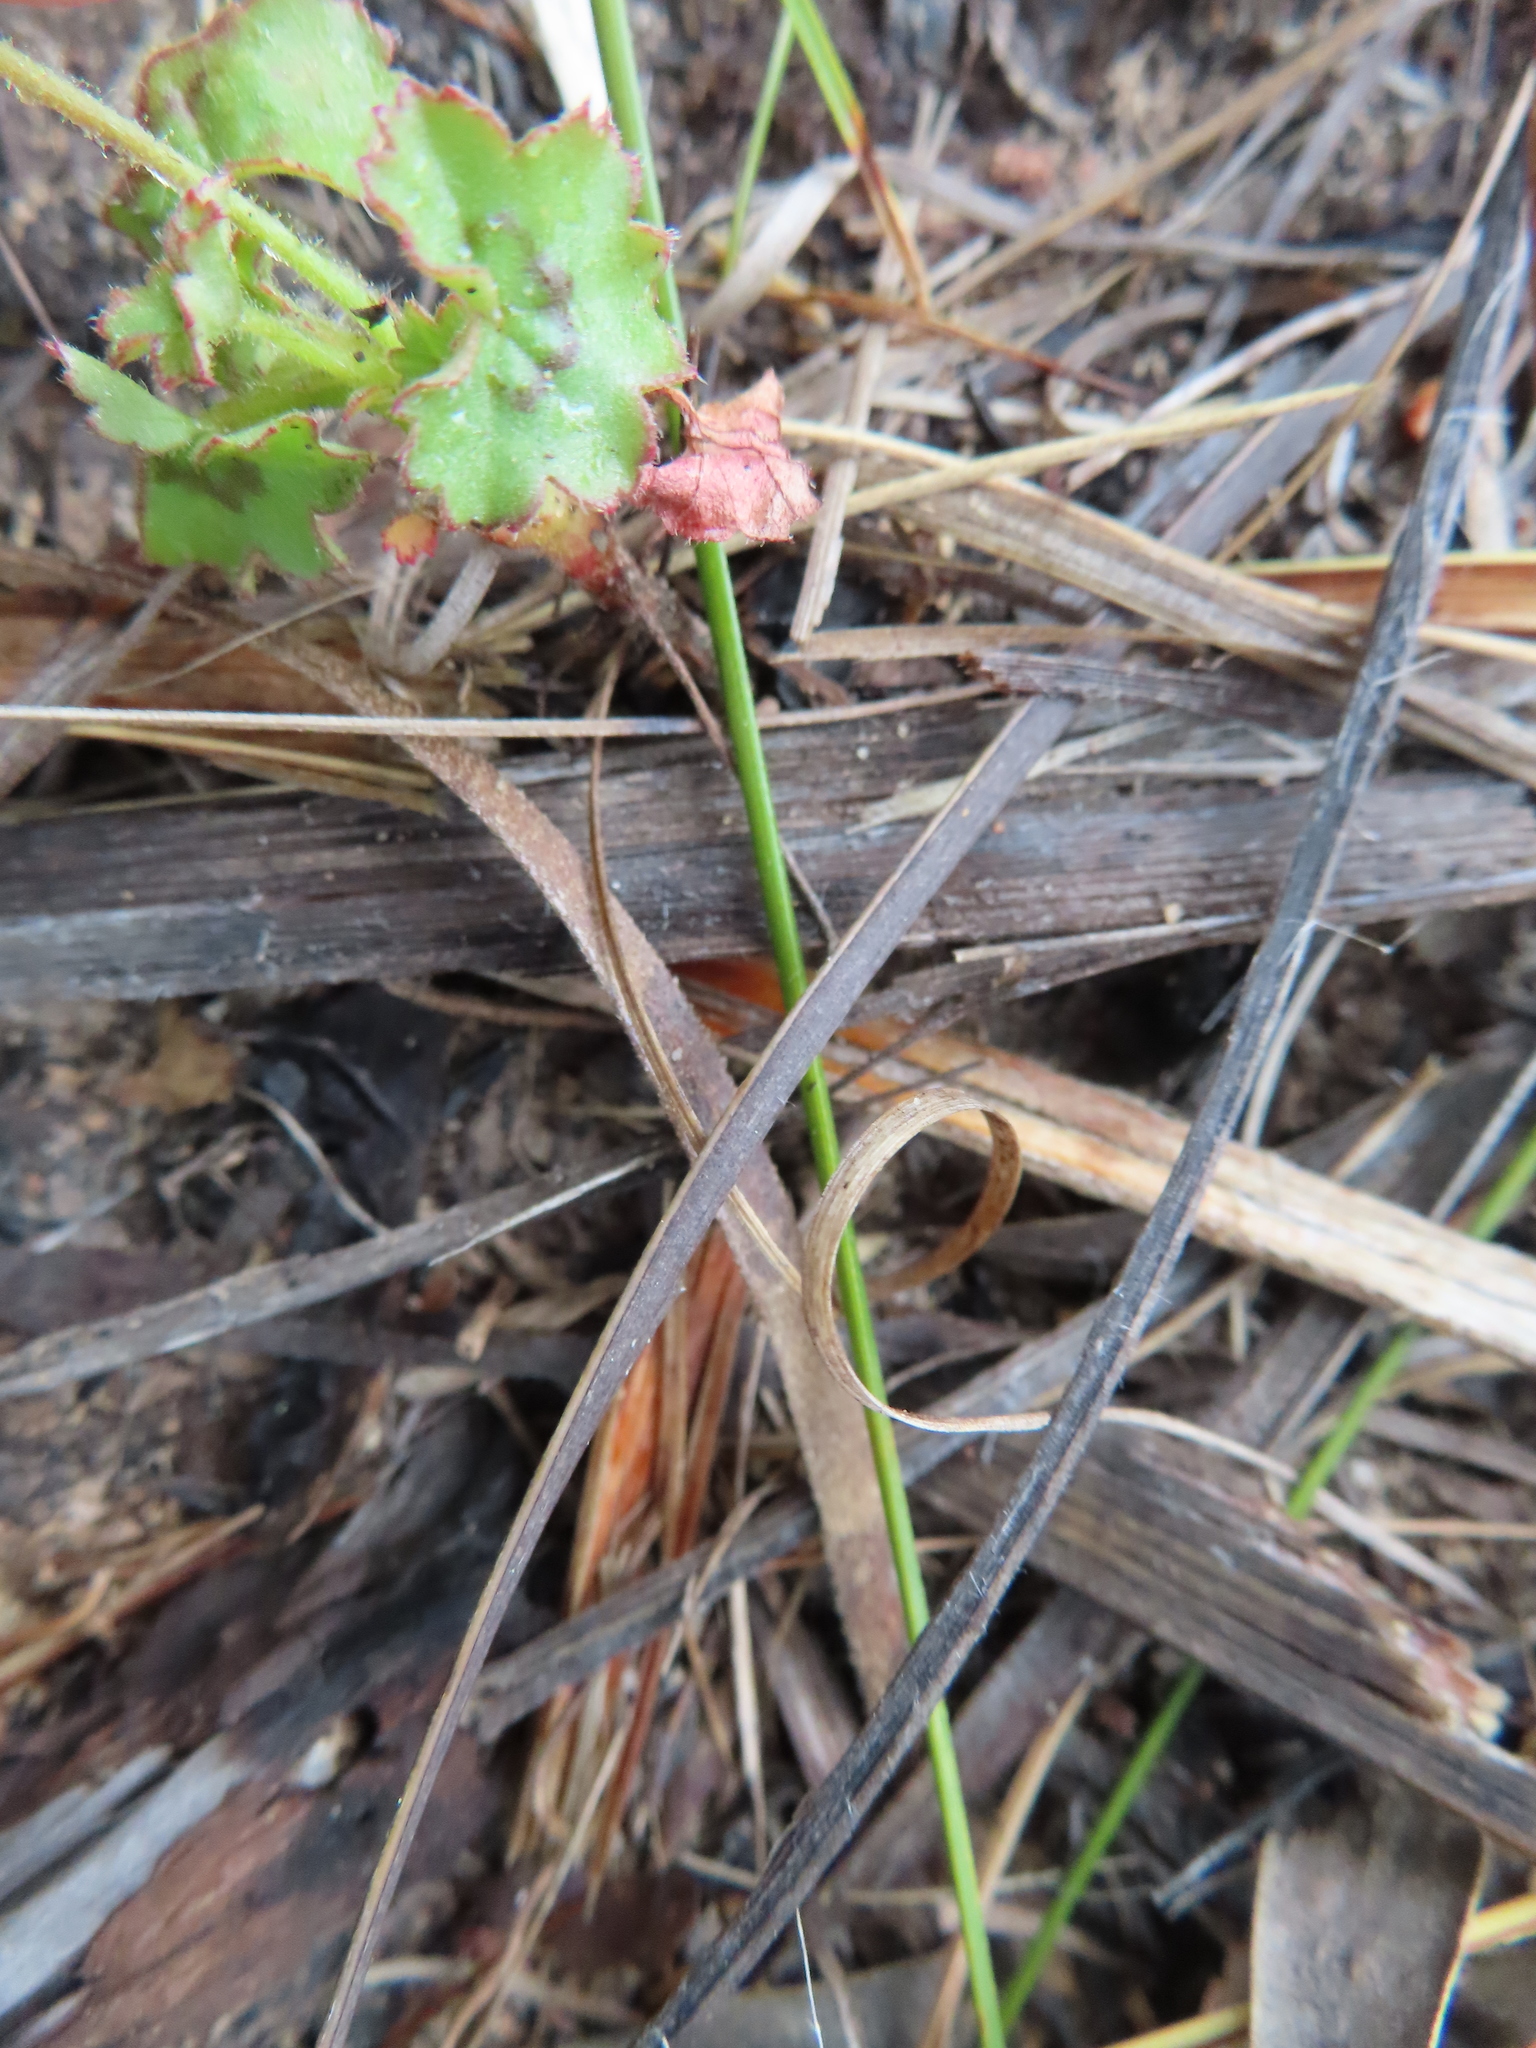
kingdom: Plantae
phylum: Tracheophyta
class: Magnoliopsida
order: Geraniales
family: Geraniaceae
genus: Pelargonium
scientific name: Pelargonium elongatum
